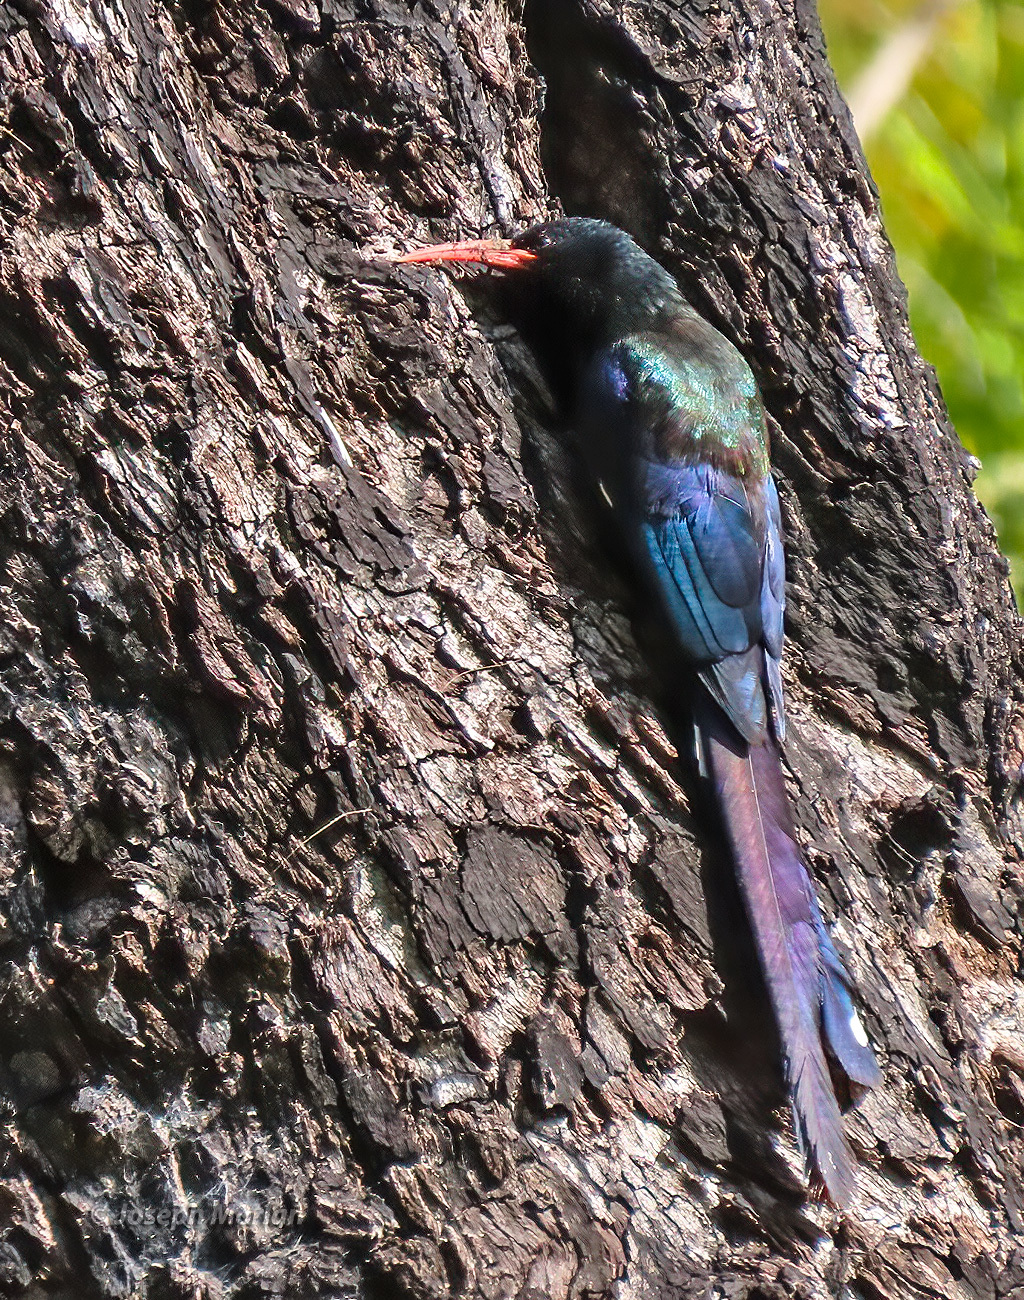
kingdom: Animalia
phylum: Chordata
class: Aves
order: Bucerotiformes
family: Phoeniculidae
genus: Phoeniculus
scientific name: Phoeniculus purpureus
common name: Green woodhoopoe
